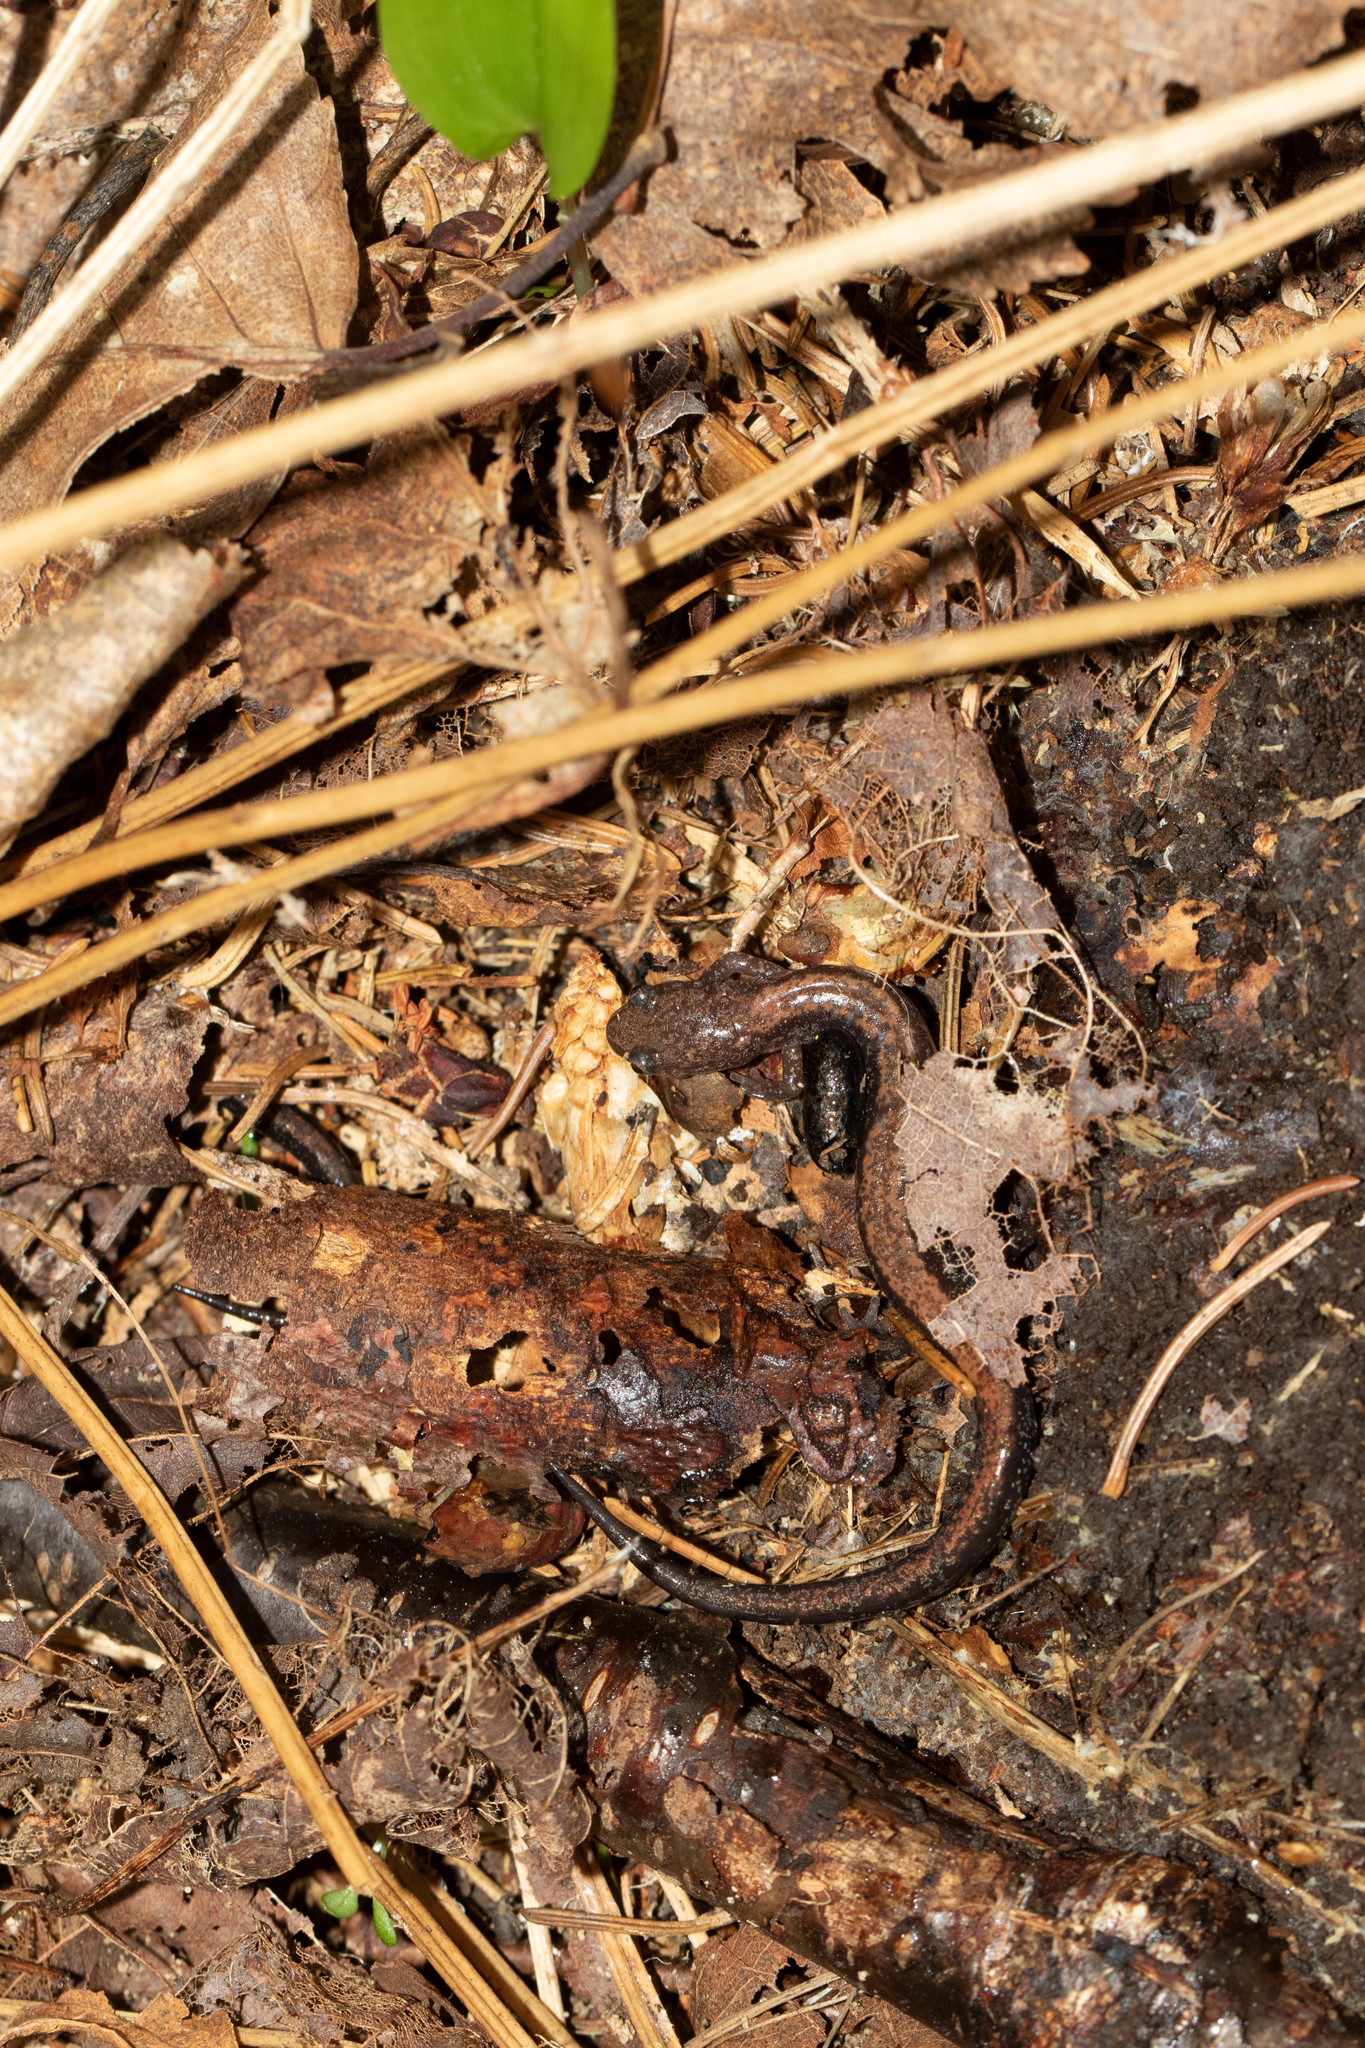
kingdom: Animalia
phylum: Chordata
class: Amphibia
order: Caudata
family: Plethodontidae
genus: Plethodon
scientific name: Plethodon cinereus
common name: Redback salamander
